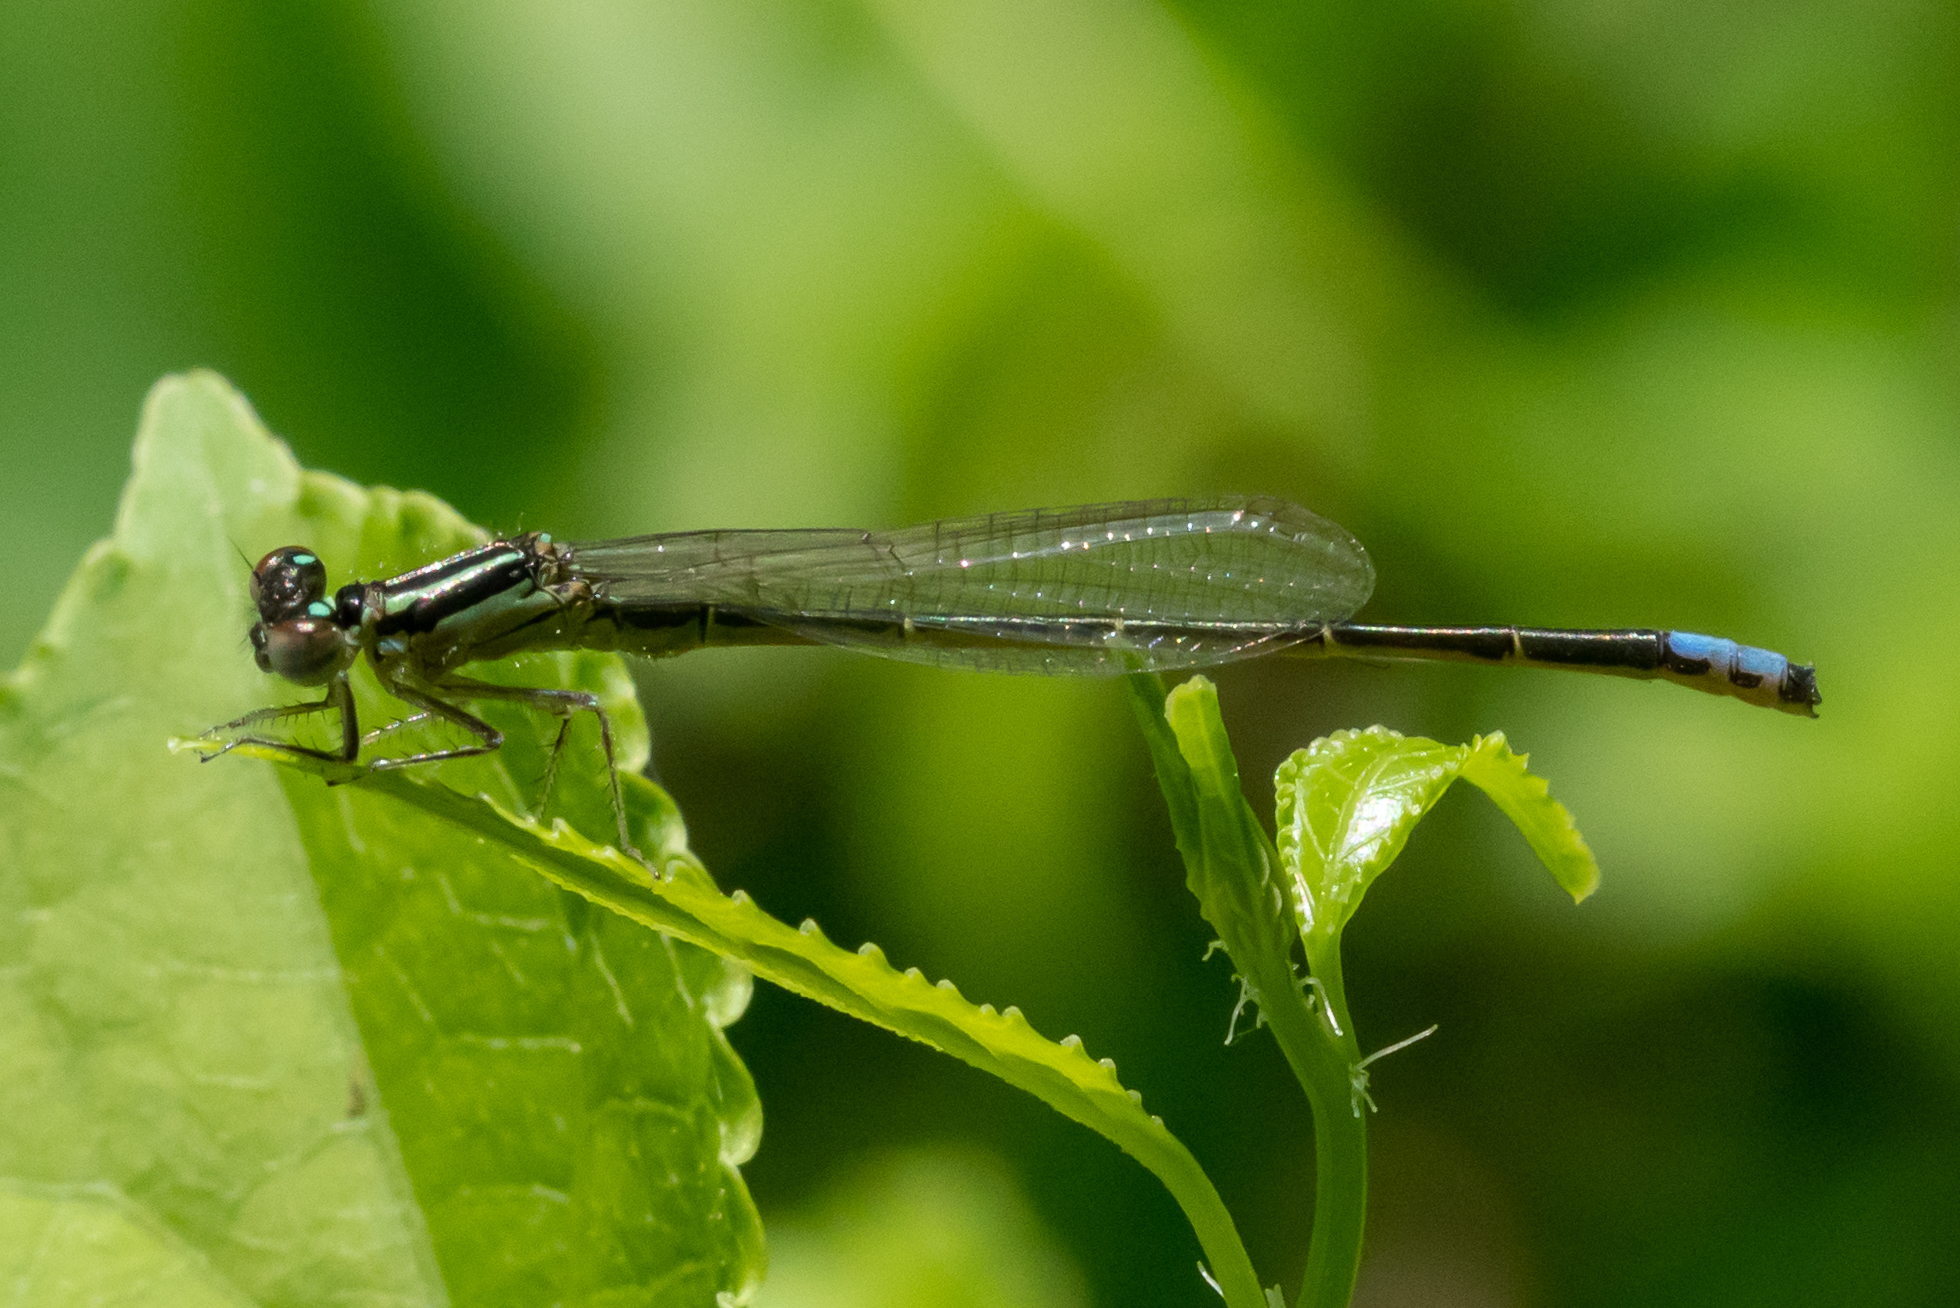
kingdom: Animalia
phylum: Arthropoda
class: Insecta
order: Odonata
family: Coenagrionidae
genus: Ischnura
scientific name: Ischnura verticalis
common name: Eastern forktail
